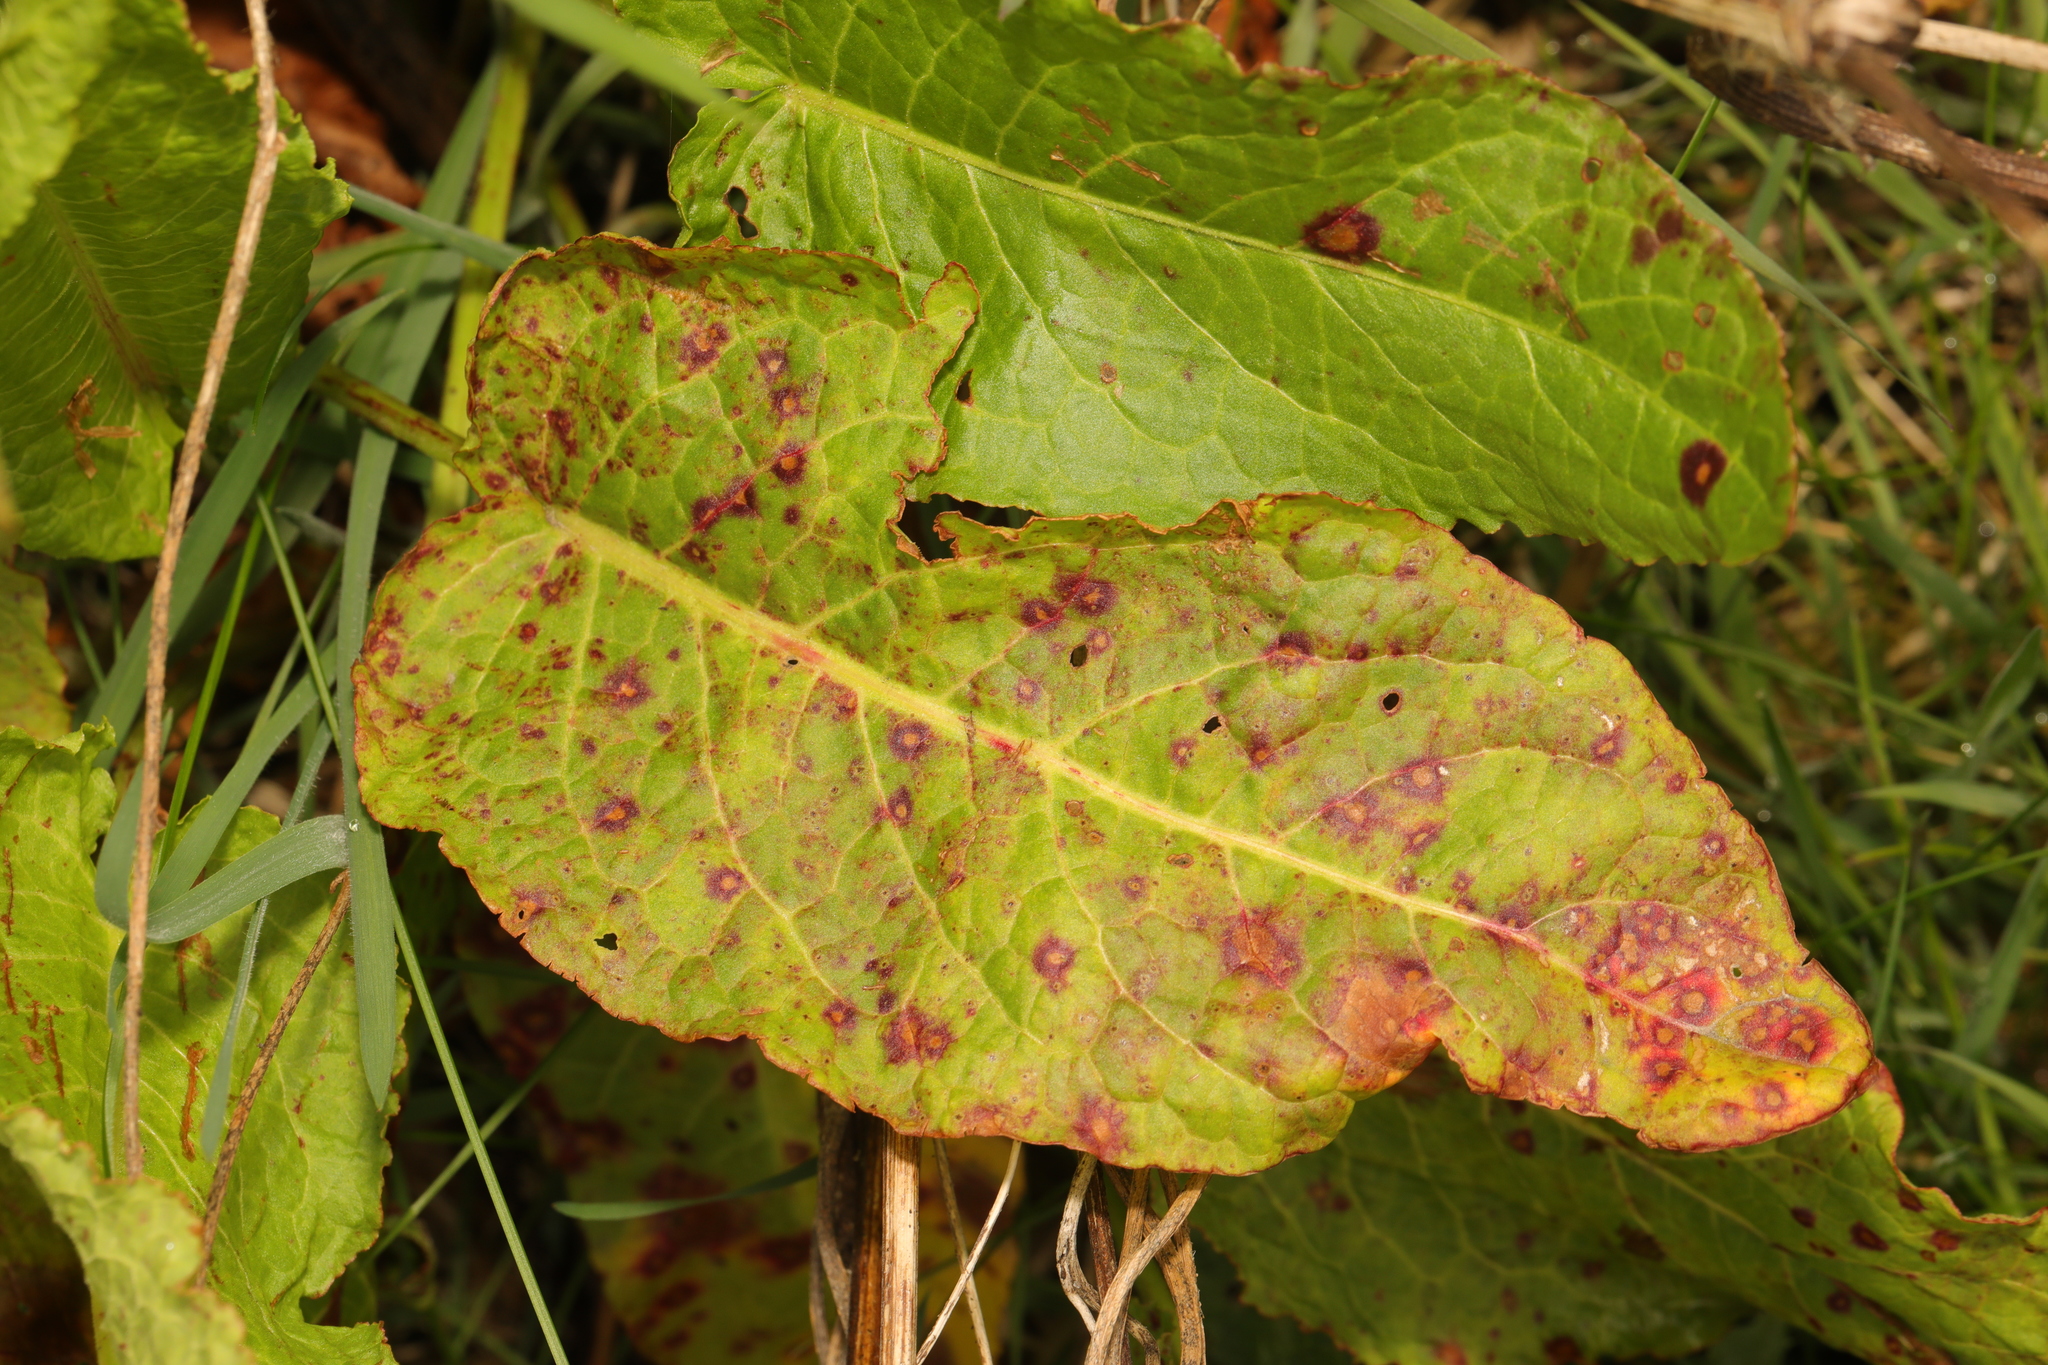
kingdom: Plantae
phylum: Tracheophyta
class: Magnoliopsida
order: Caryophyllales
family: Polygonaceae
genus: Rumex
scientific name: Rumex obtusifolius
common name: Bitter dock
